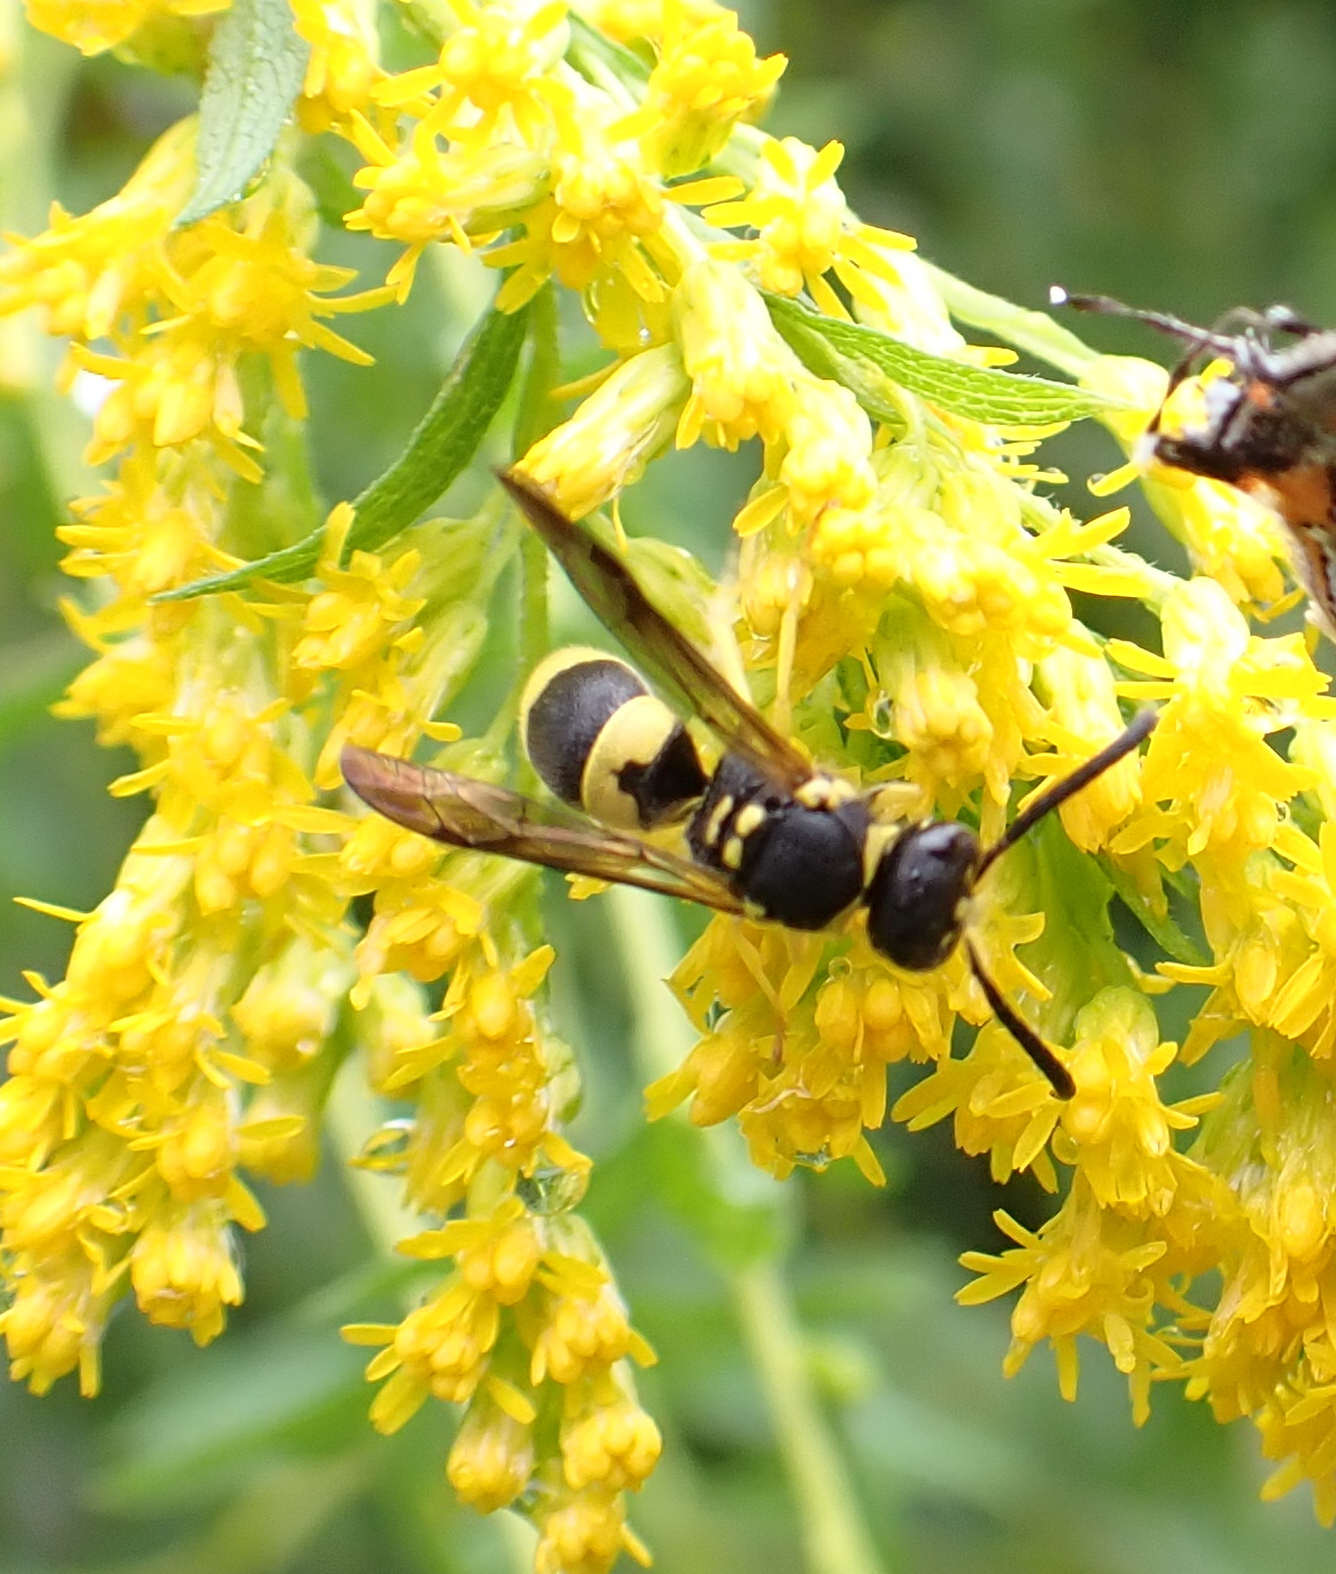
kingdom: Animalia
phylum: Arthropoda
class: Insecta
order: Hymenoptera
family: Vespidae
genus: Ancistrocerus
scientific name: Ancistrocerus gazella
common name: European tube wasp
